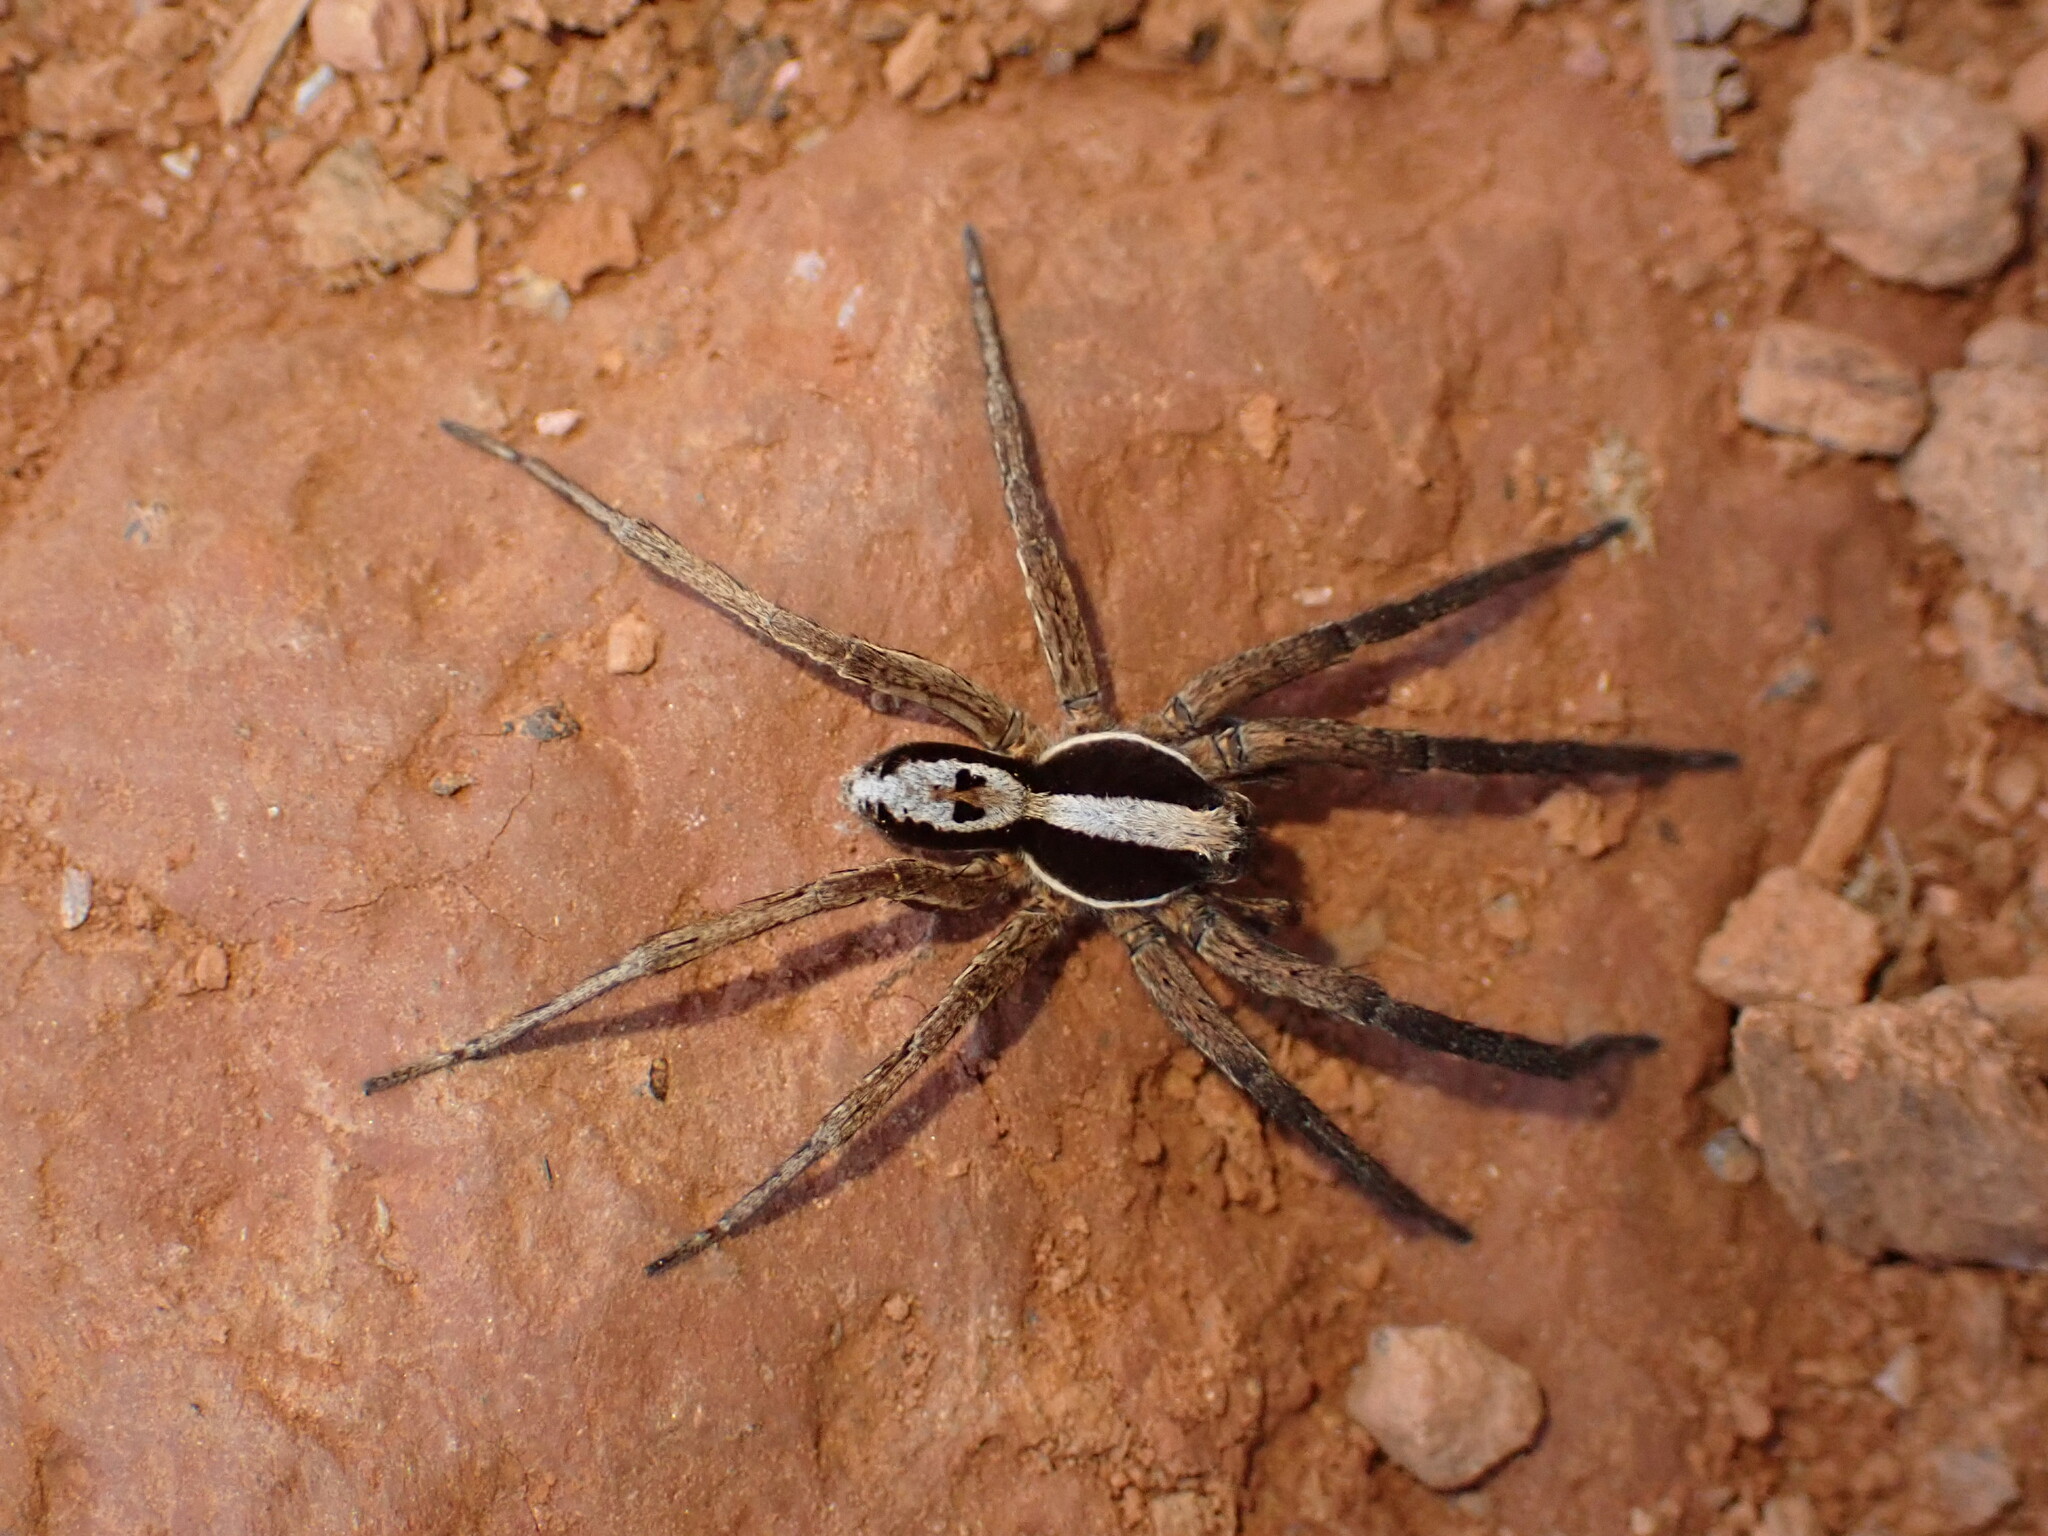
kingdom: Animalia
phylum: Arthropoda
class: Arachnida
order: Araneae
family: Lycosidae
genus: Hogna
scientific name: Hogna gumia
